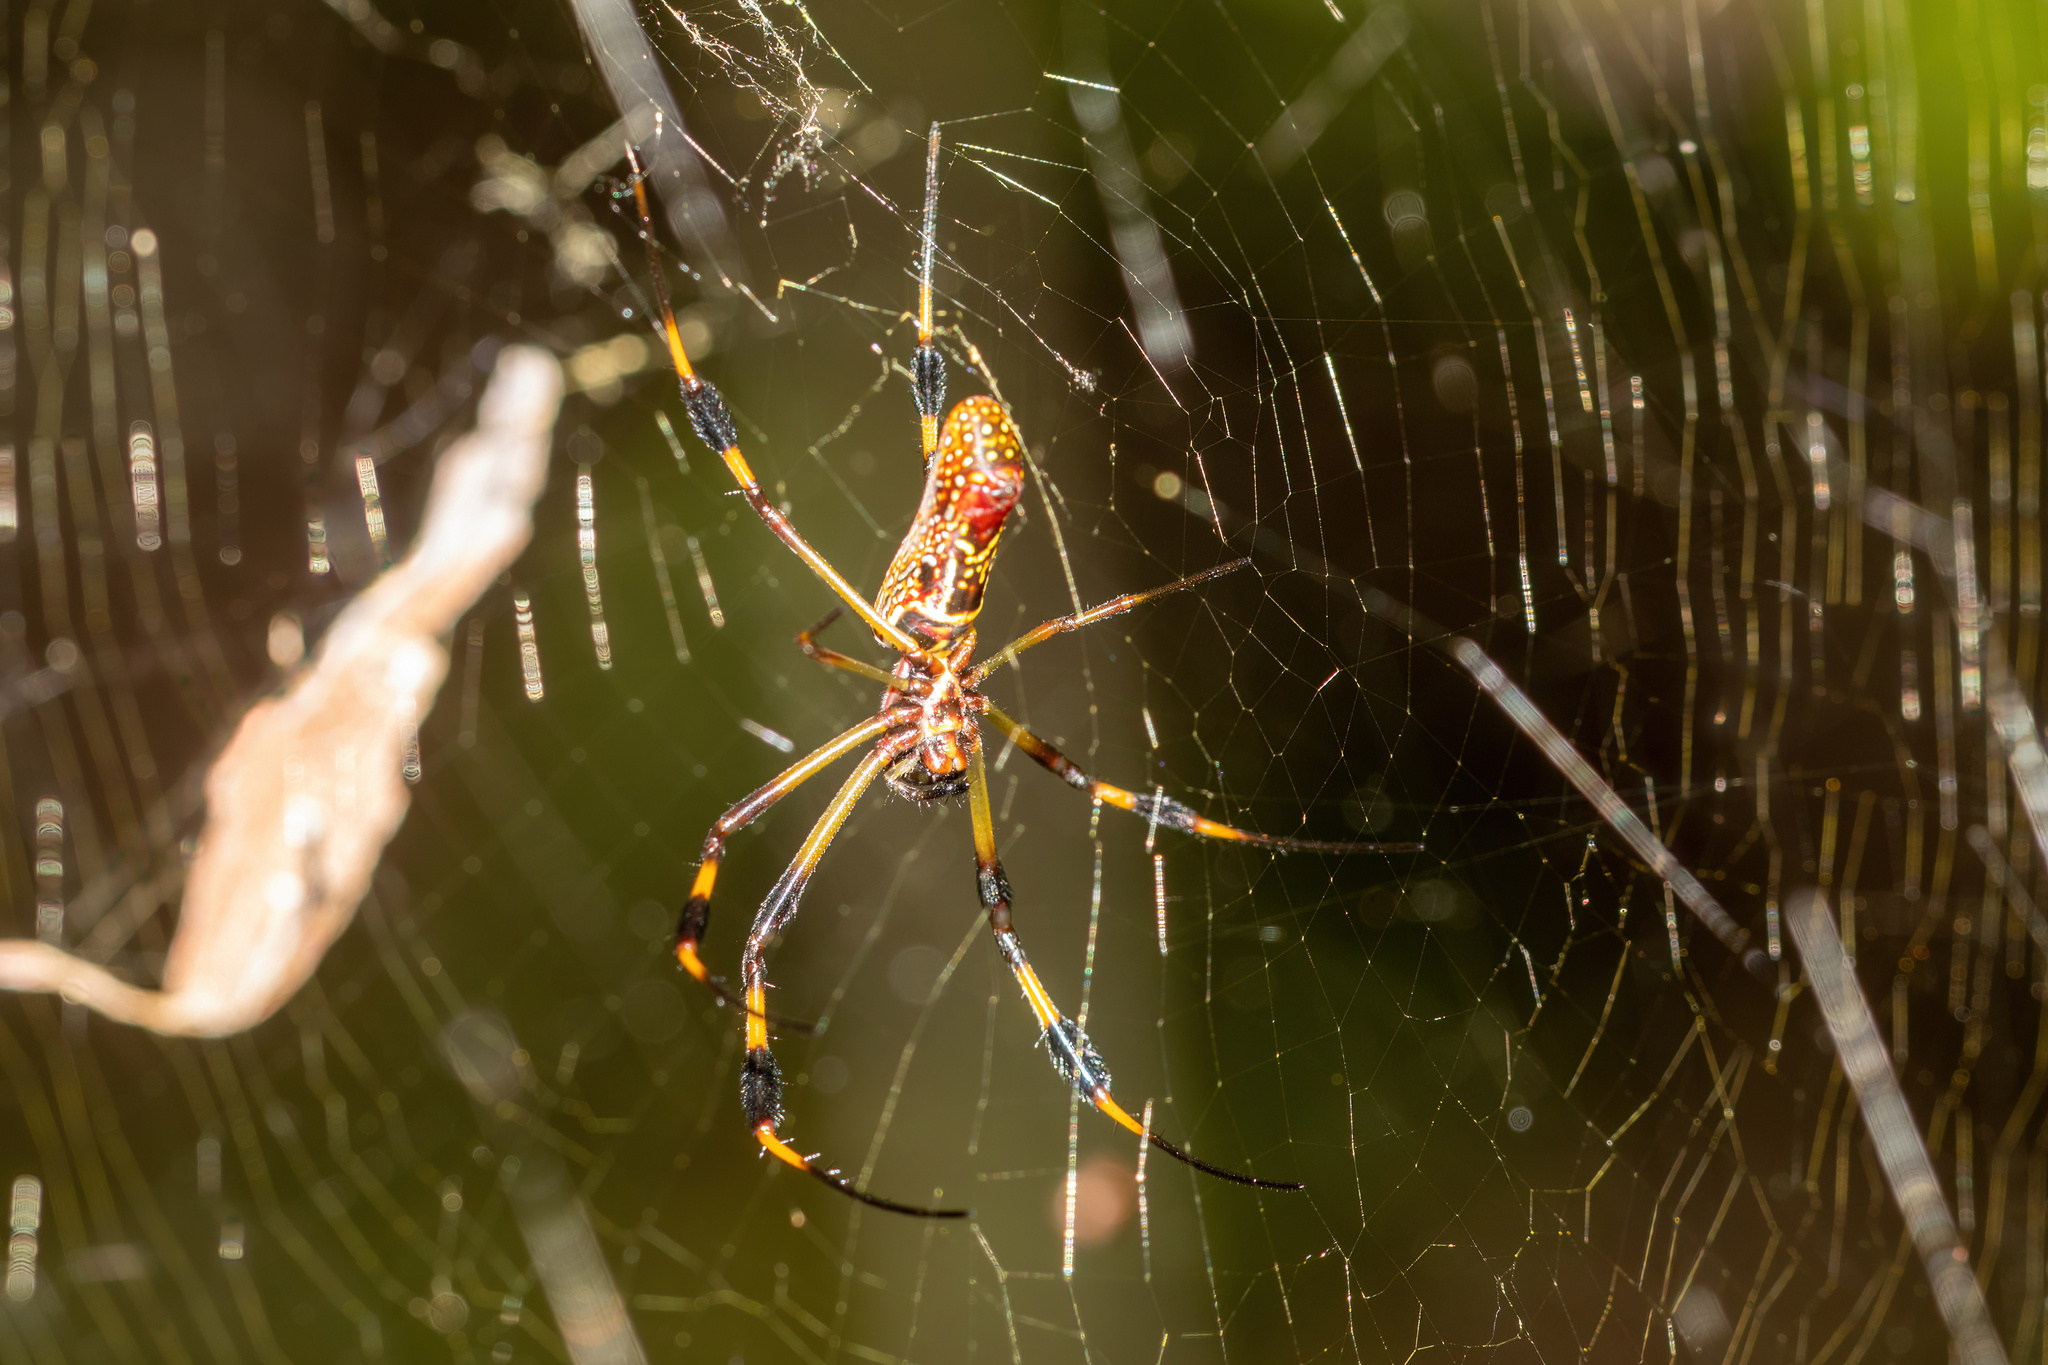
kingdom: Animalia
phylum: Arthropoda
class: Arachnida
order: Araneae
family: Araneidae
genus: Trichonephila
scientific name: Trichonephila clavipes
